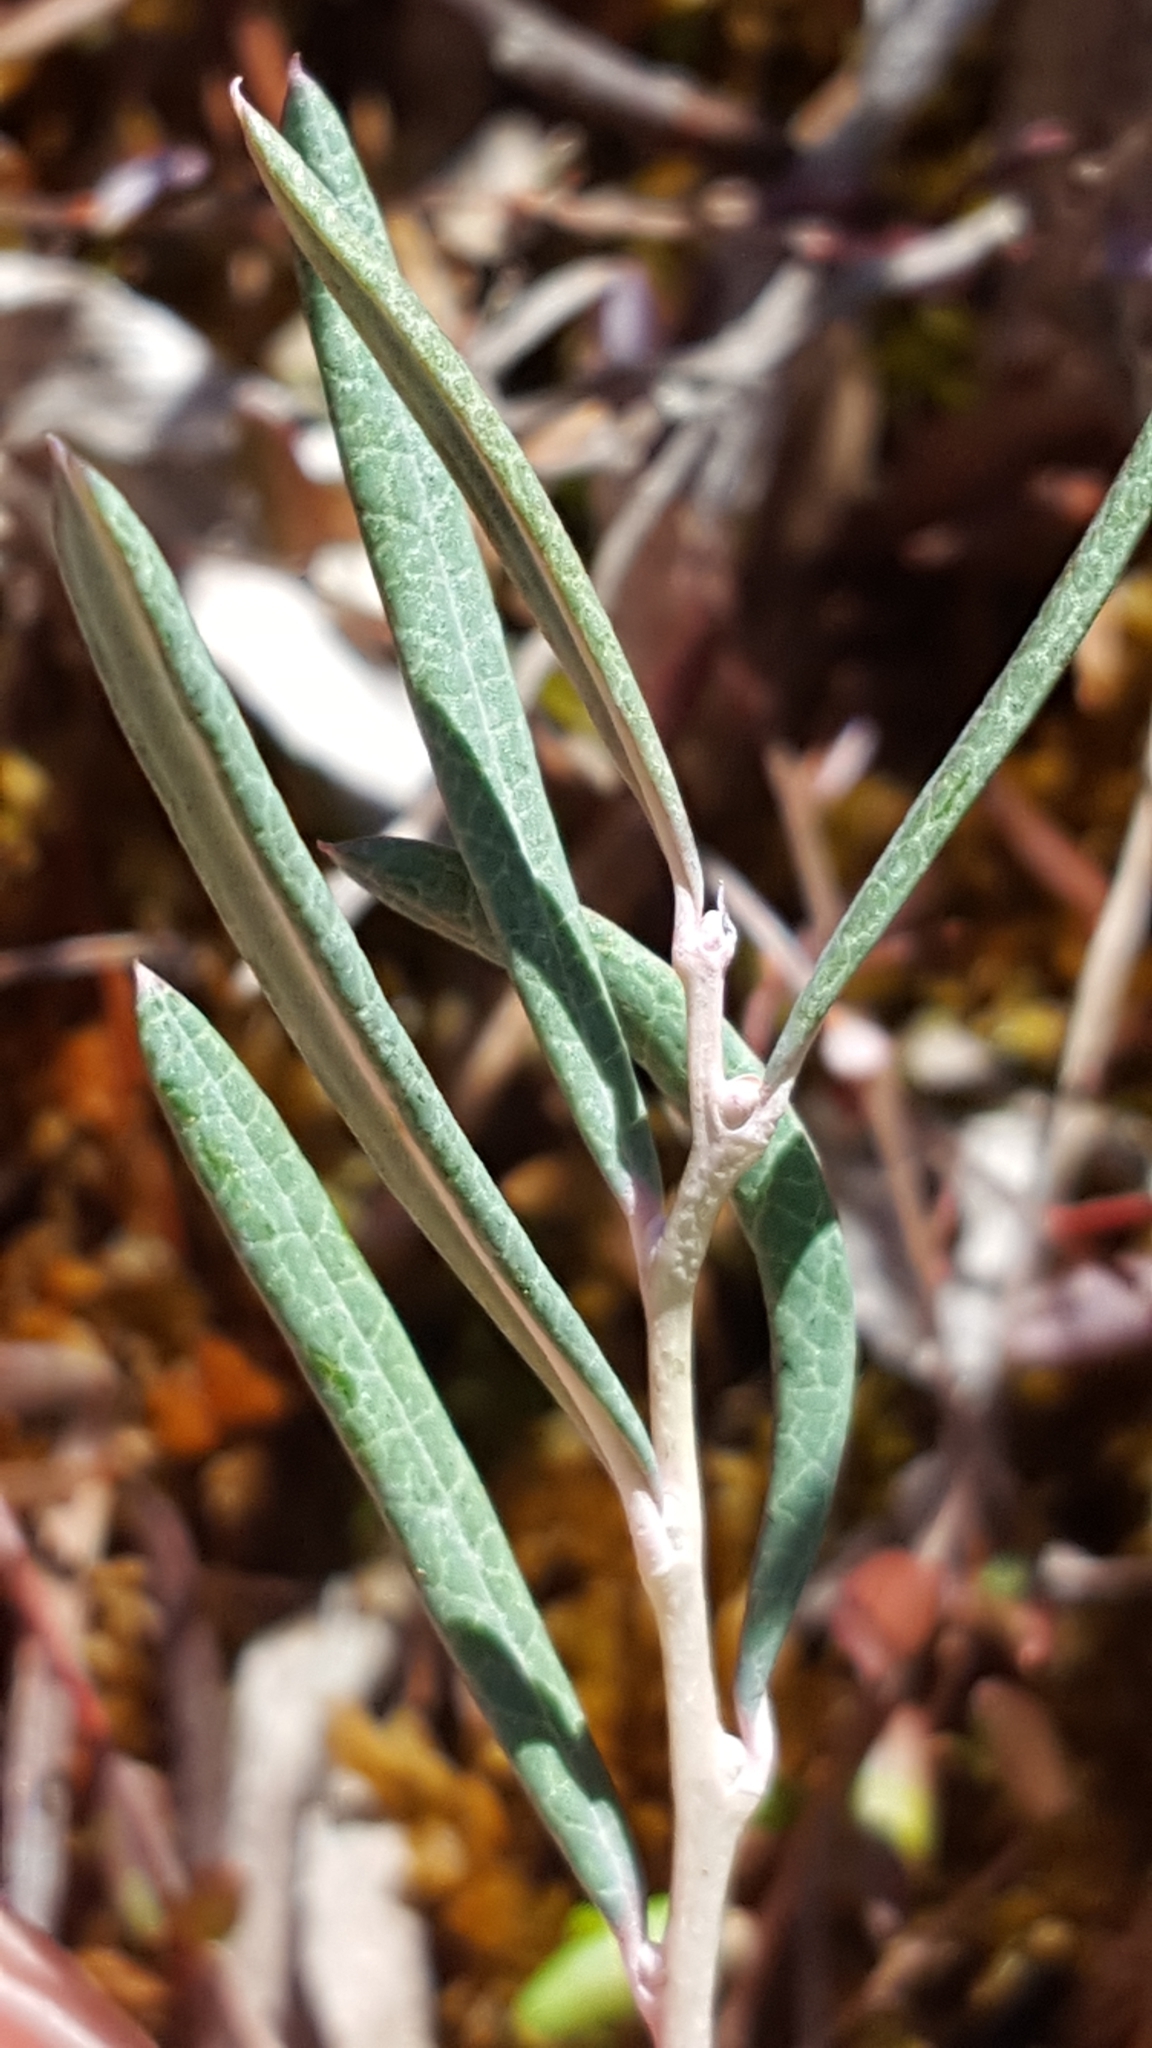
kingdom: Plantae
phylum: Tracheophyta
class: Magnoliopsida
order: Ericales
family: Ericaceae
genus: Andromeda
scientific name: Andromeda polifolia
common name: Bog-rosemary
